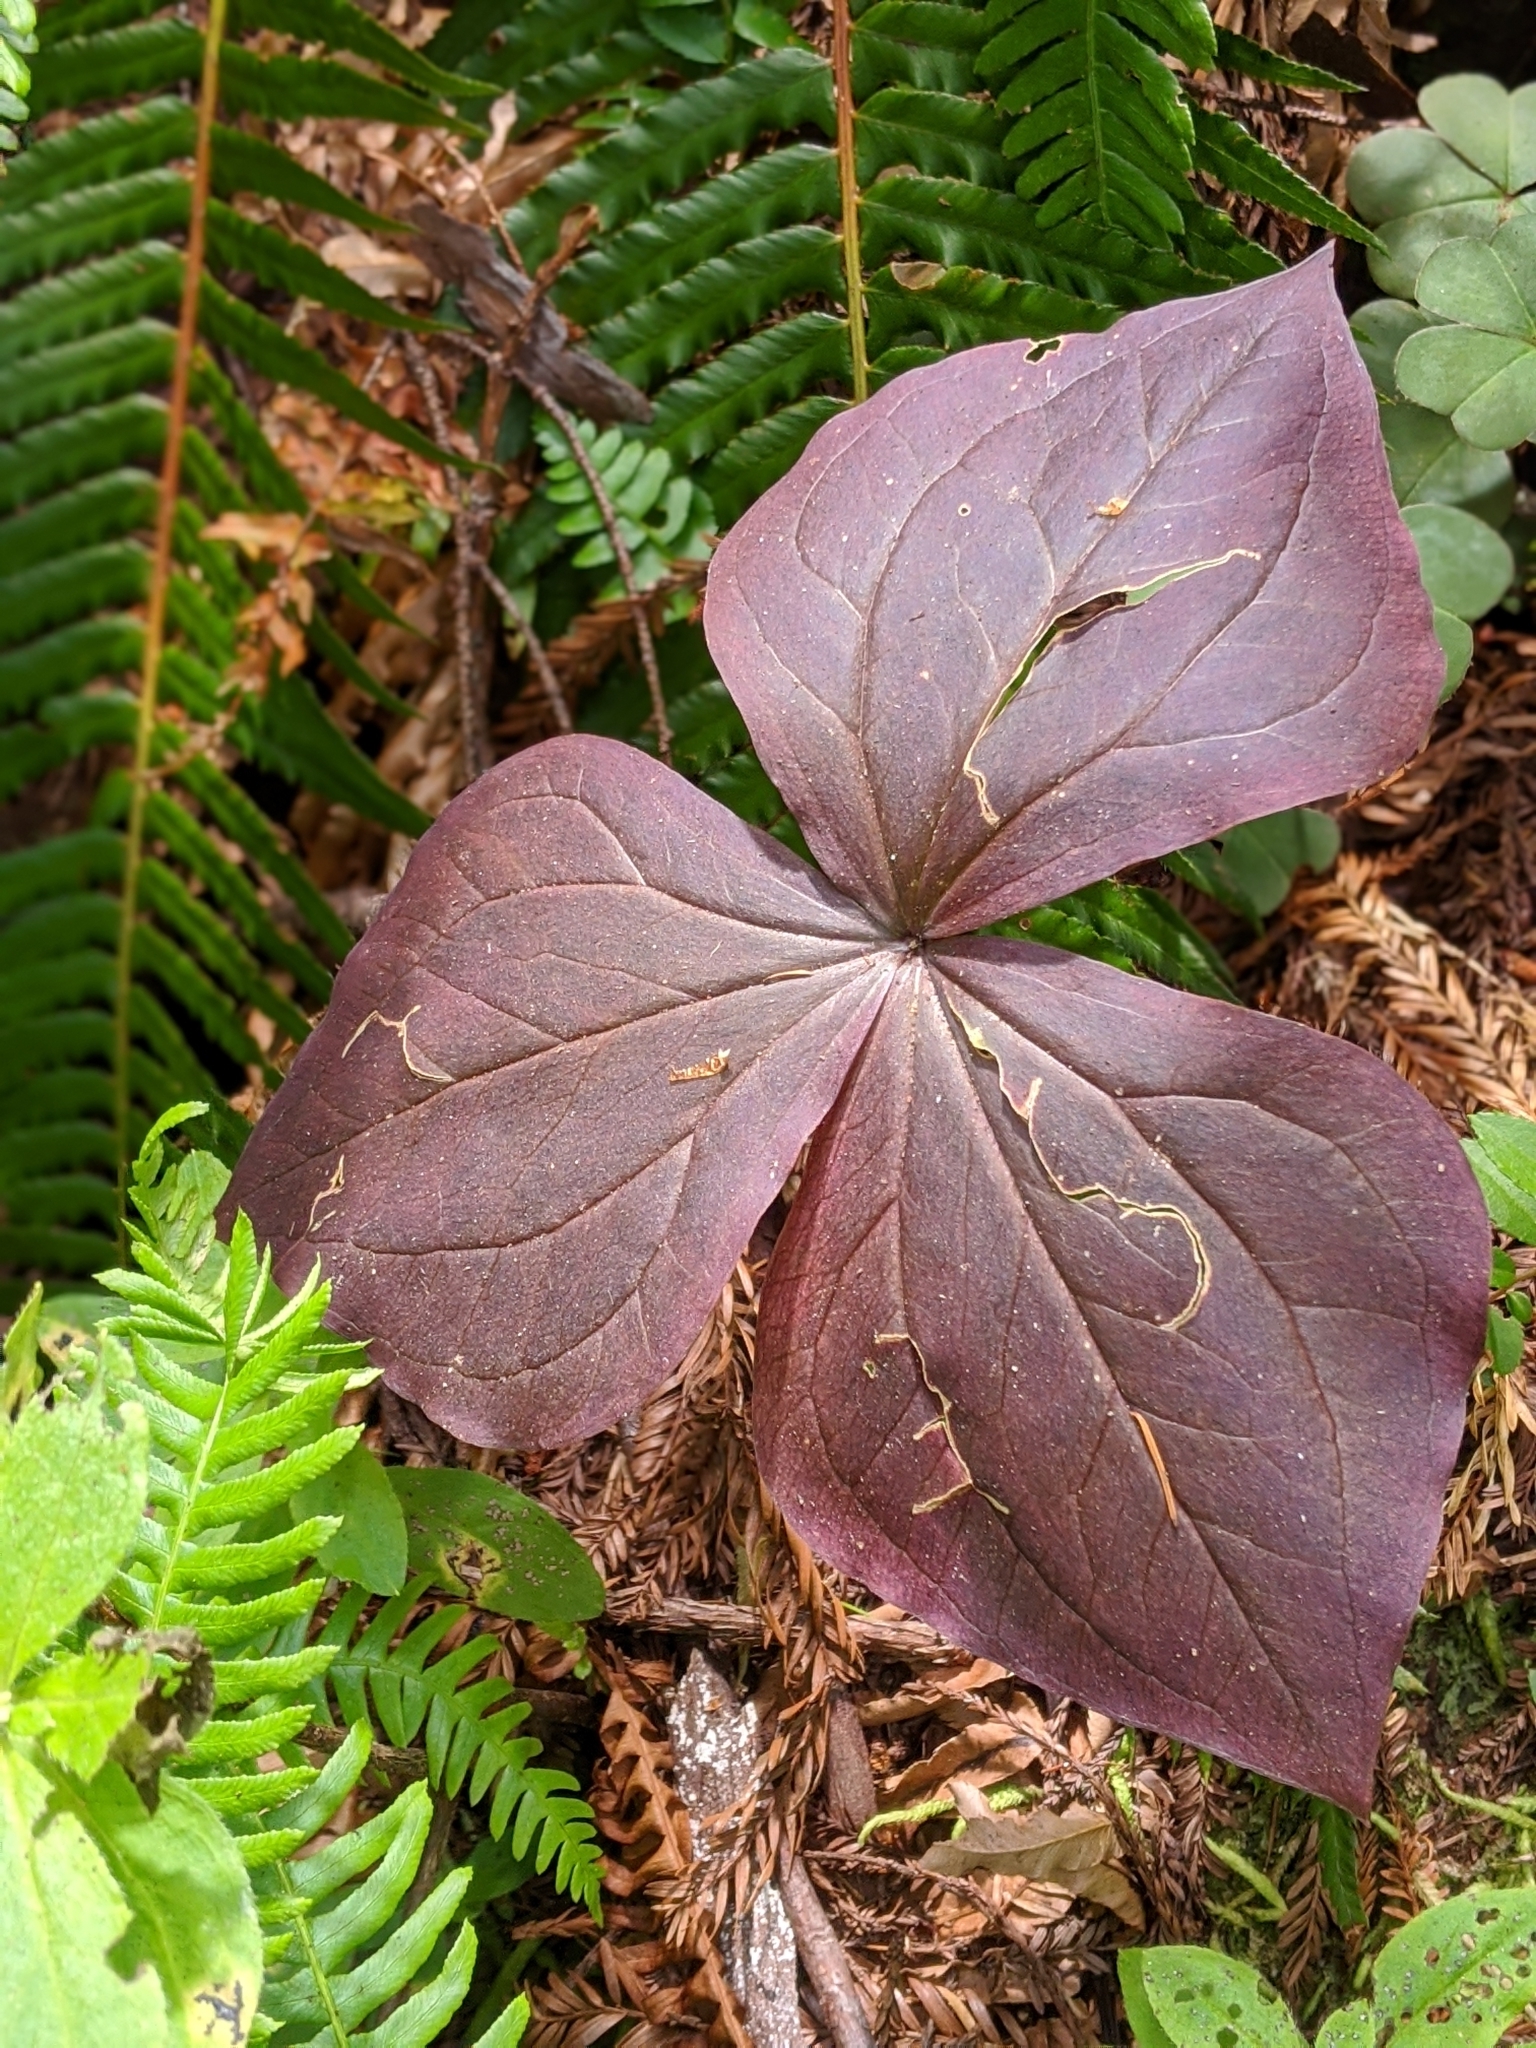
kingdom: Plantae
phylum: Tracheophyta
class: Liliopsida
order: Liliales
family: Melanthiaceae
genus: Trillium
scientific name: Trillium ovatum
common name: Pacific trillium
